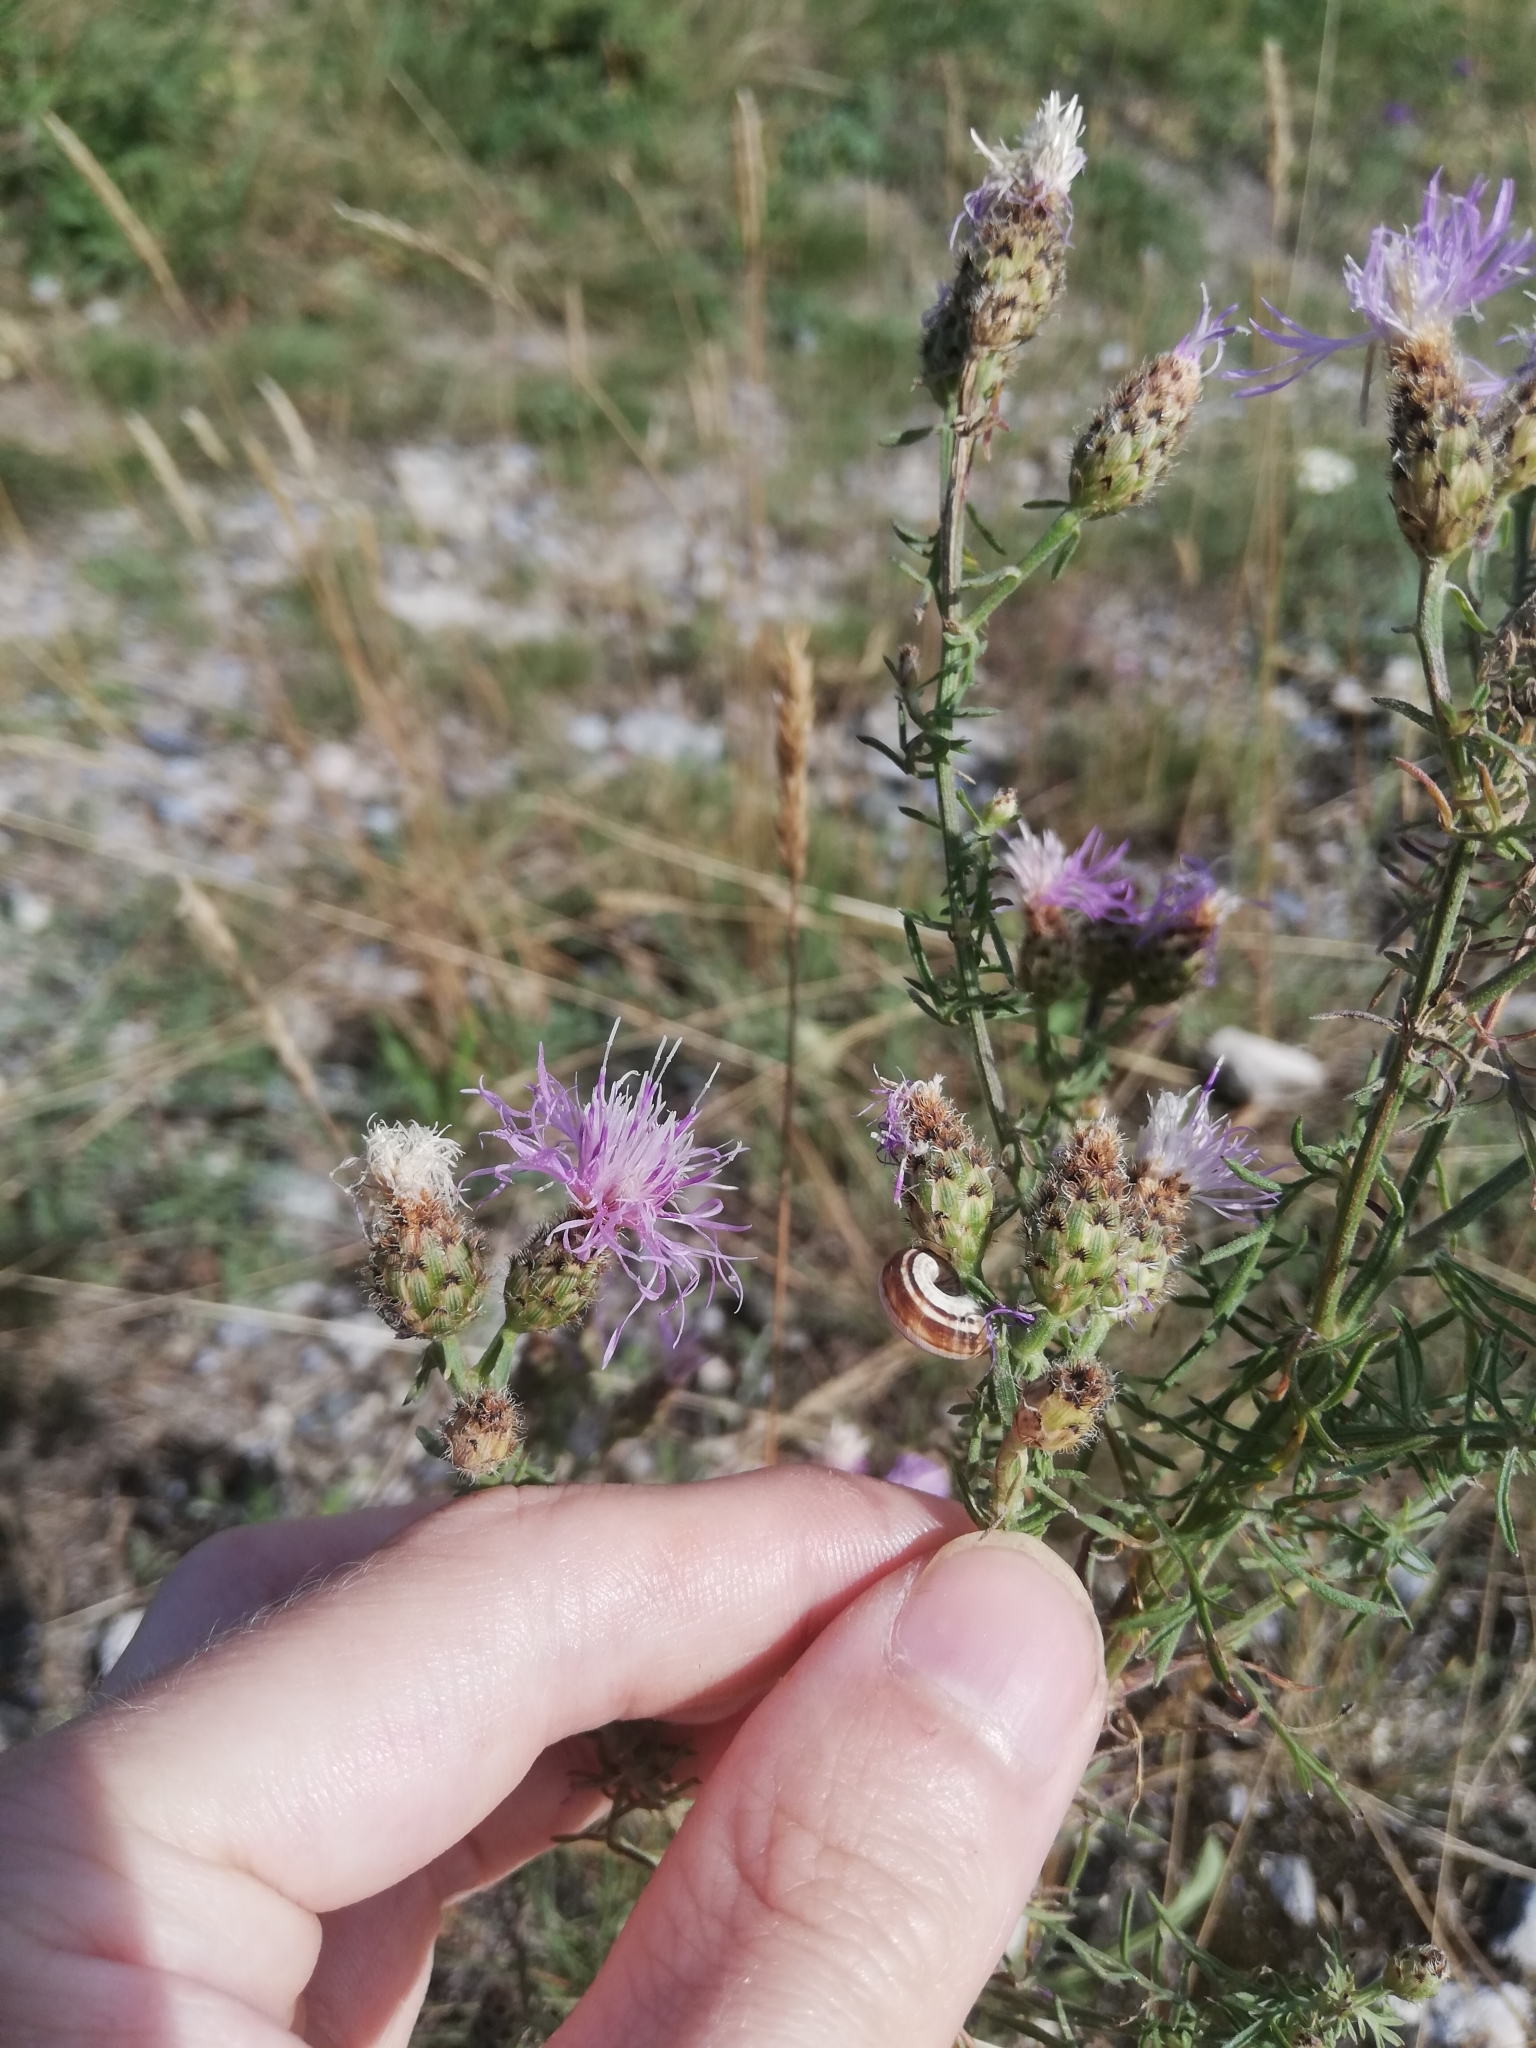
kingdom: Plantae
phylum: Tracheophyta
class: Magnoliopsida
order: Asterales
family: Asteraceae
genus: Centaurea
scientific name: Centaurea stoebe
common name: Spotted knapweed
